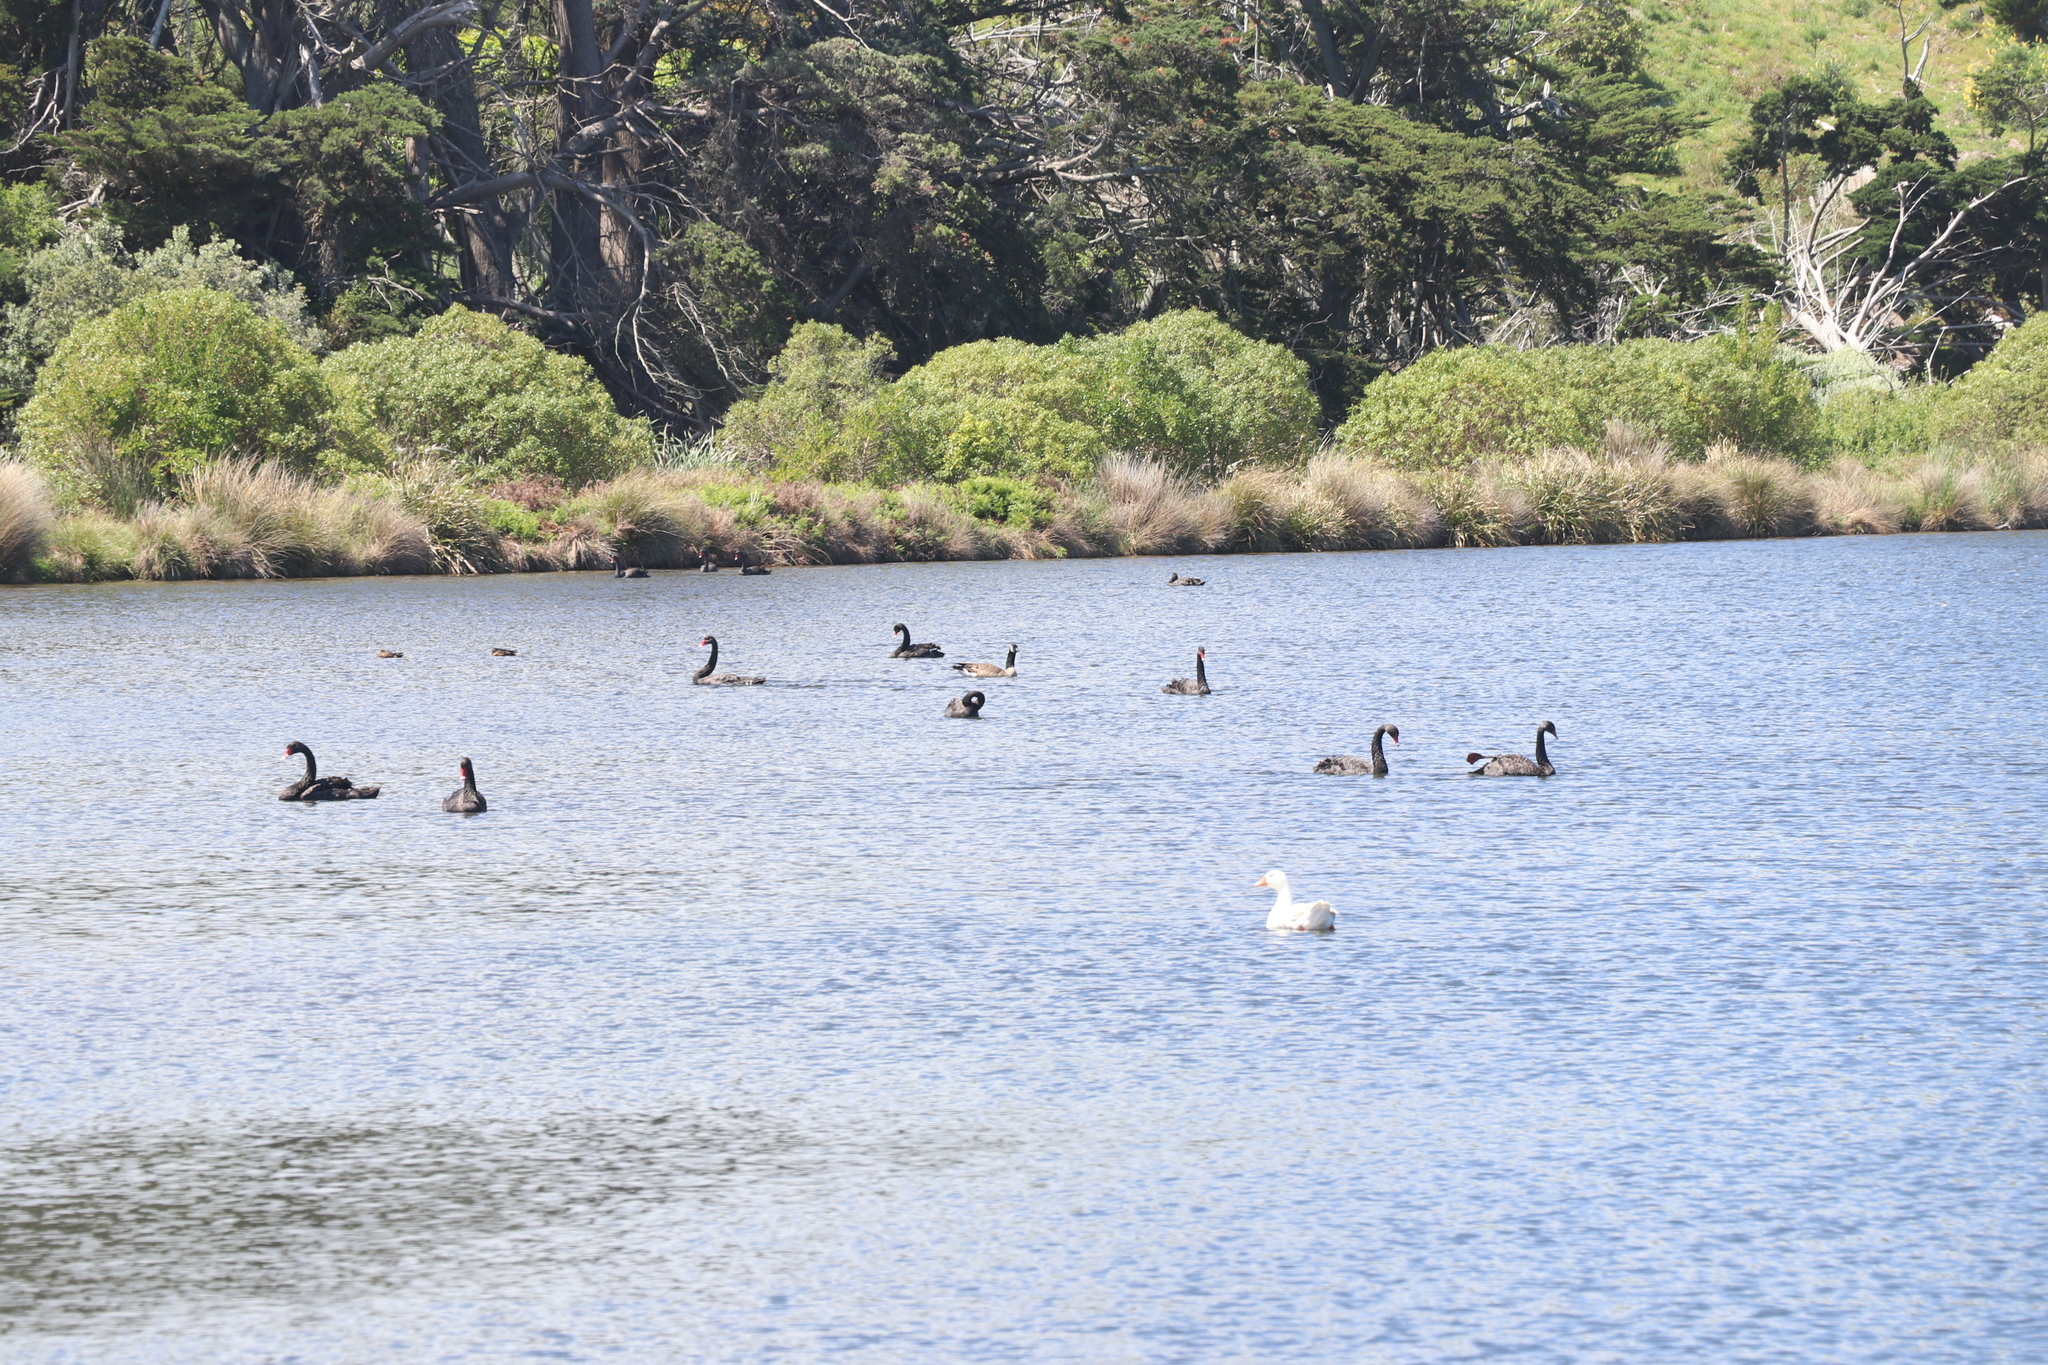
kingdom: Animalia
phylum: Chordata
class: Aves
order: Anseriformes
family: Anatidae
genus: Branta
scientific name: Branta canadensis
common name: Canada goose
